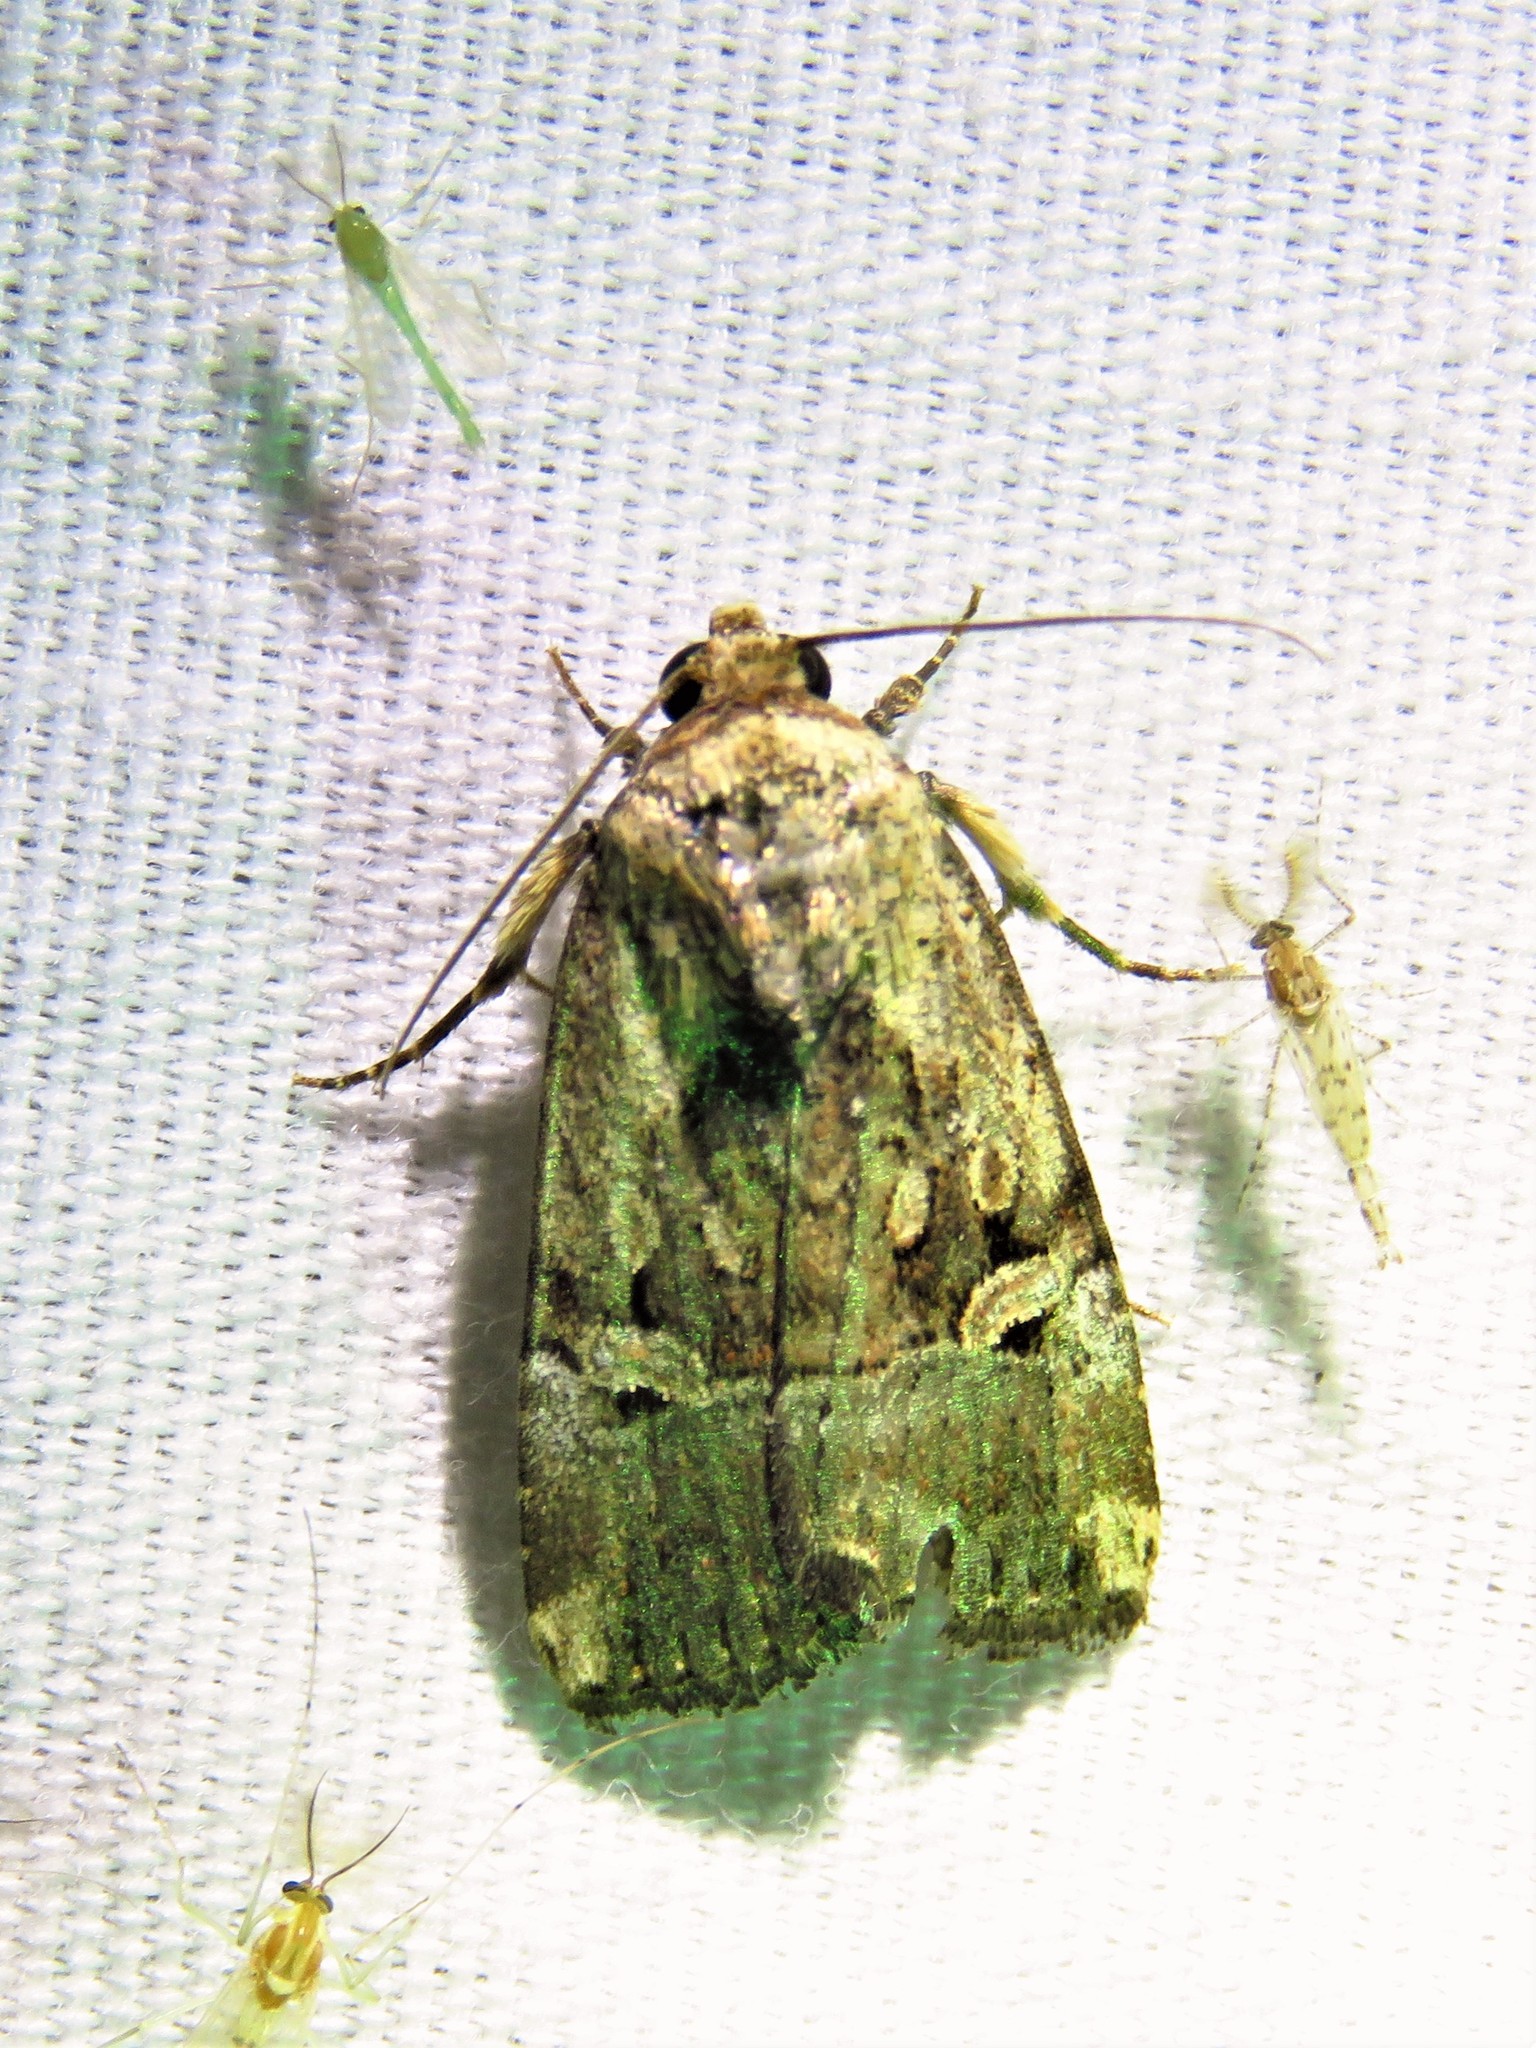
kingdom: Animalia
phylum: Arthropoda
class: Insecta
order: Lepidoptera
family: Noctuidae
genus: Elaphria
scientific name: Elaphria chalcedonia
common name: Chalcedony midget
